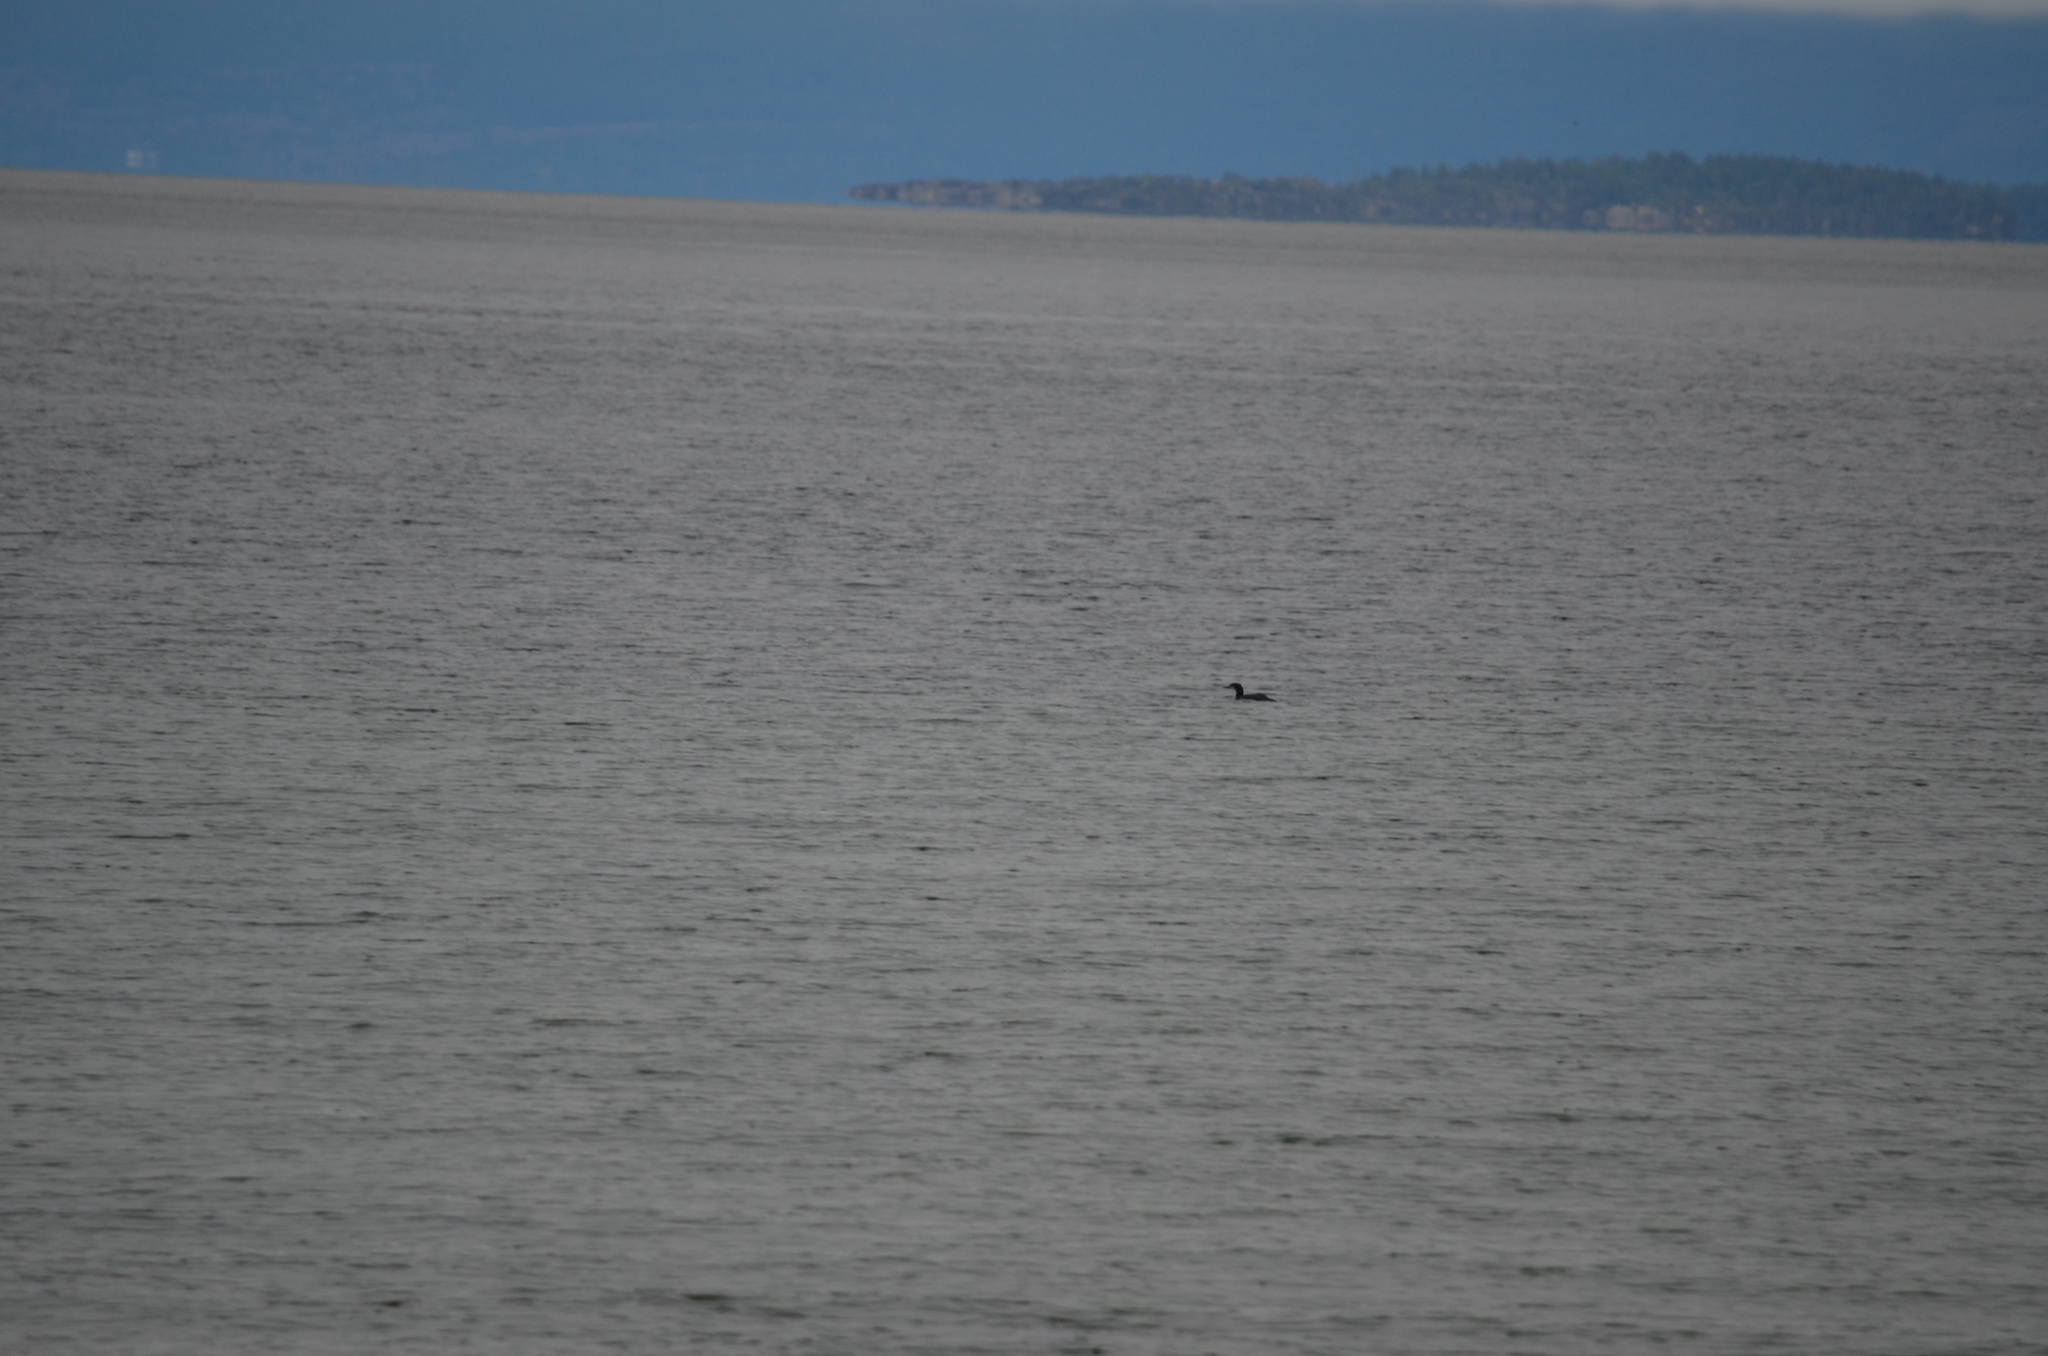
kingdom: Animalia
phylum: Chordata
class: Aves
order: Gaviiformes
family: Gaviidae
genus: Gavia
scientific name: Gavia immer
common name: Common loon
